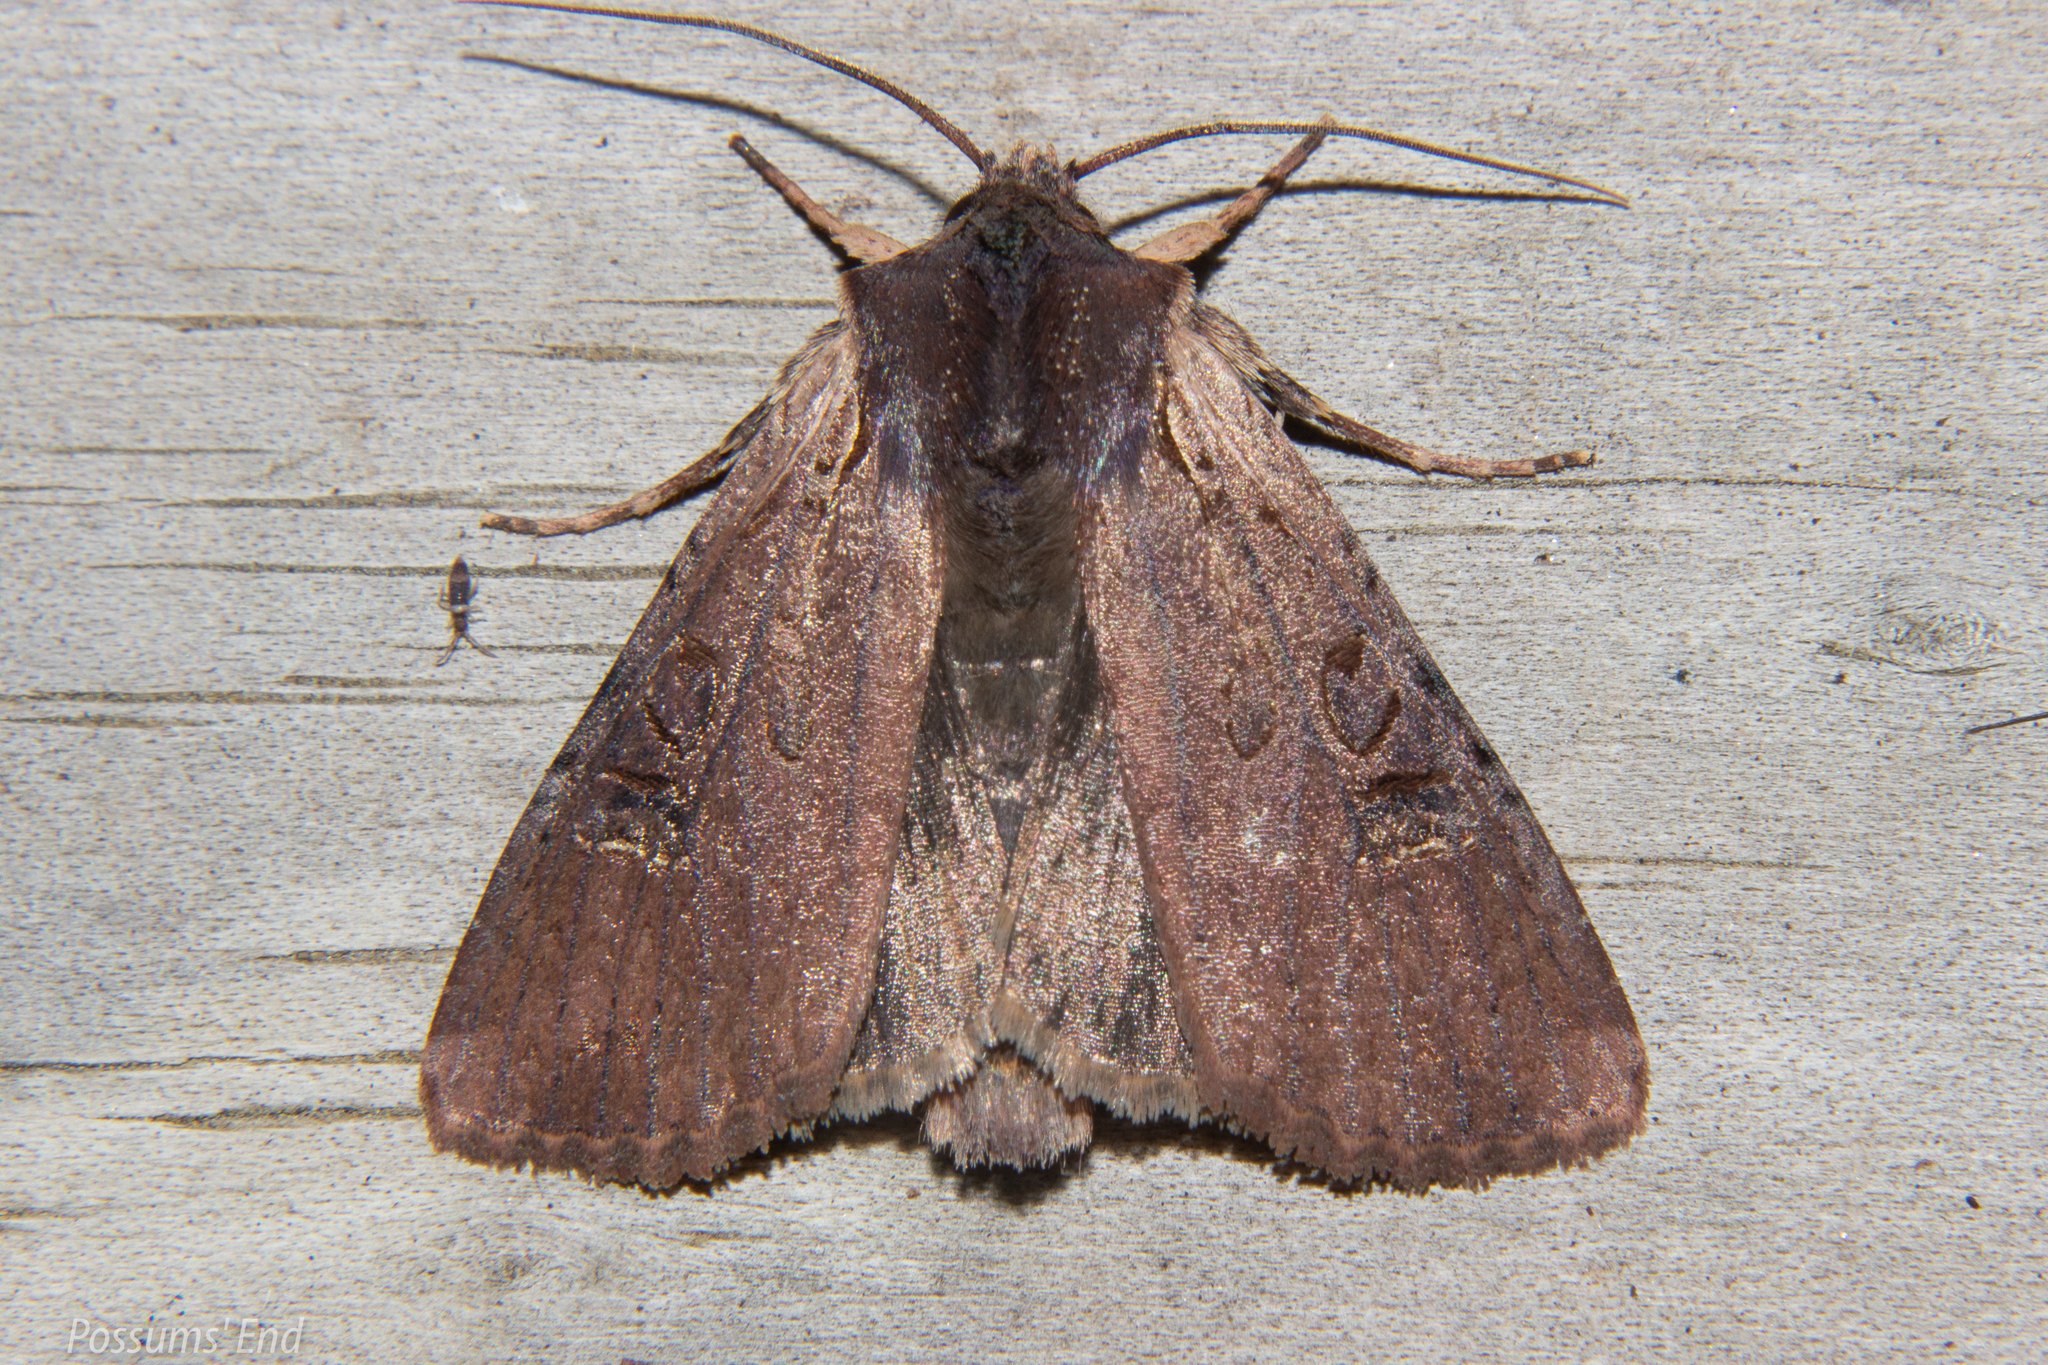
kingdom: Animalia
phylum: Arthropoda
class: Insecta
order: Lepidoptera
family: Noctuidae
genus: Ichneutica
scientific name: Ichneutica omoplaca
